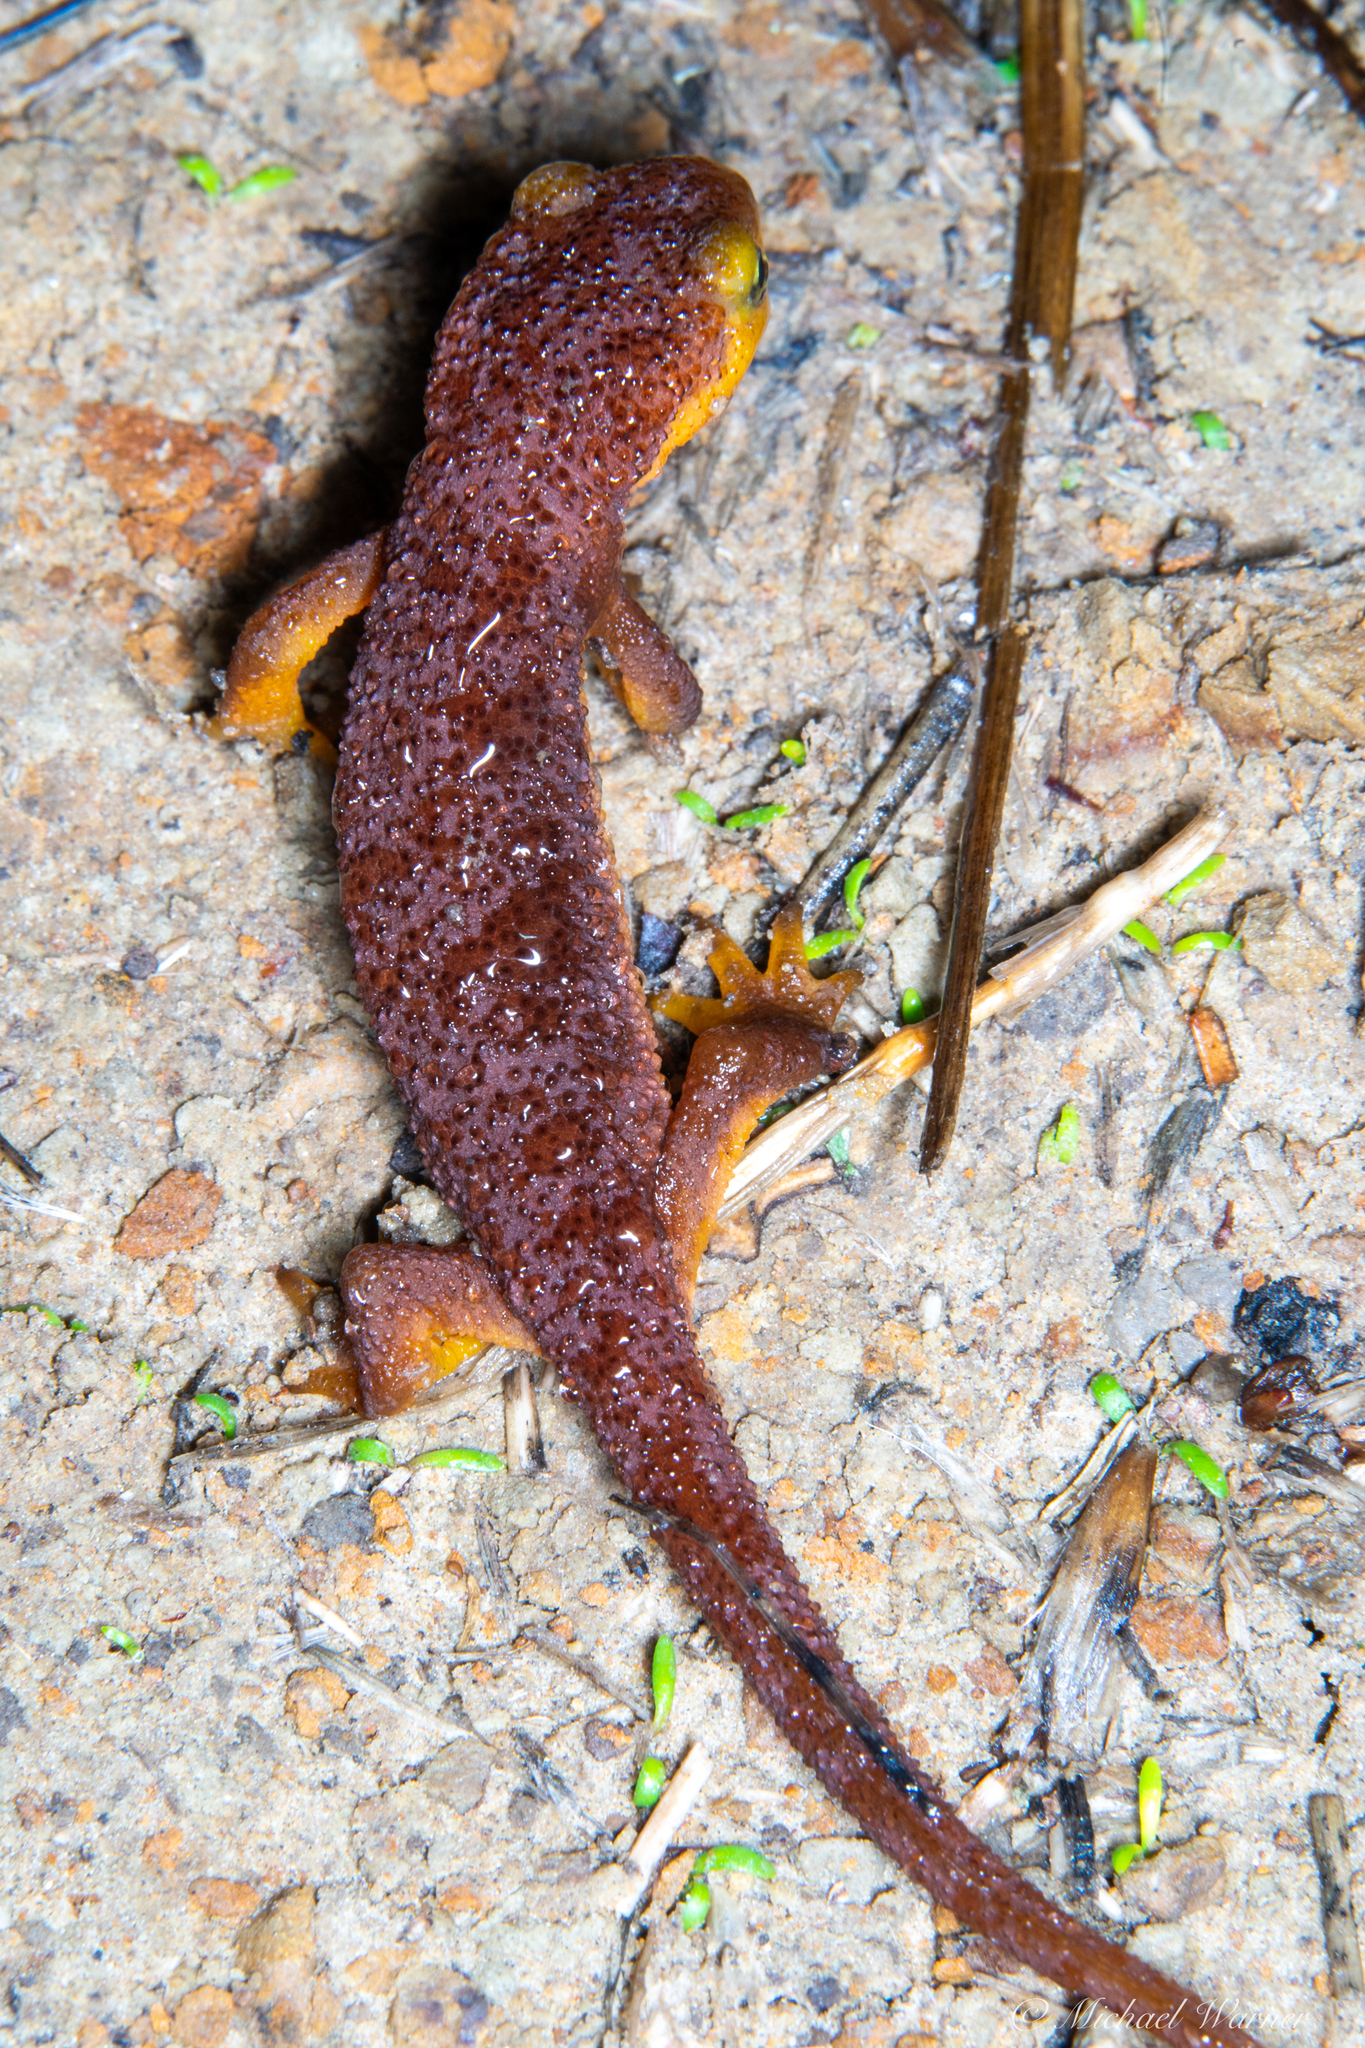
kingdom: Animalia
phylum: Chordata
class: Amphibia
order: Caudata
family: Salamandridae
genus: Taricha
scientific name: Taricha torosa
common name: California newt
